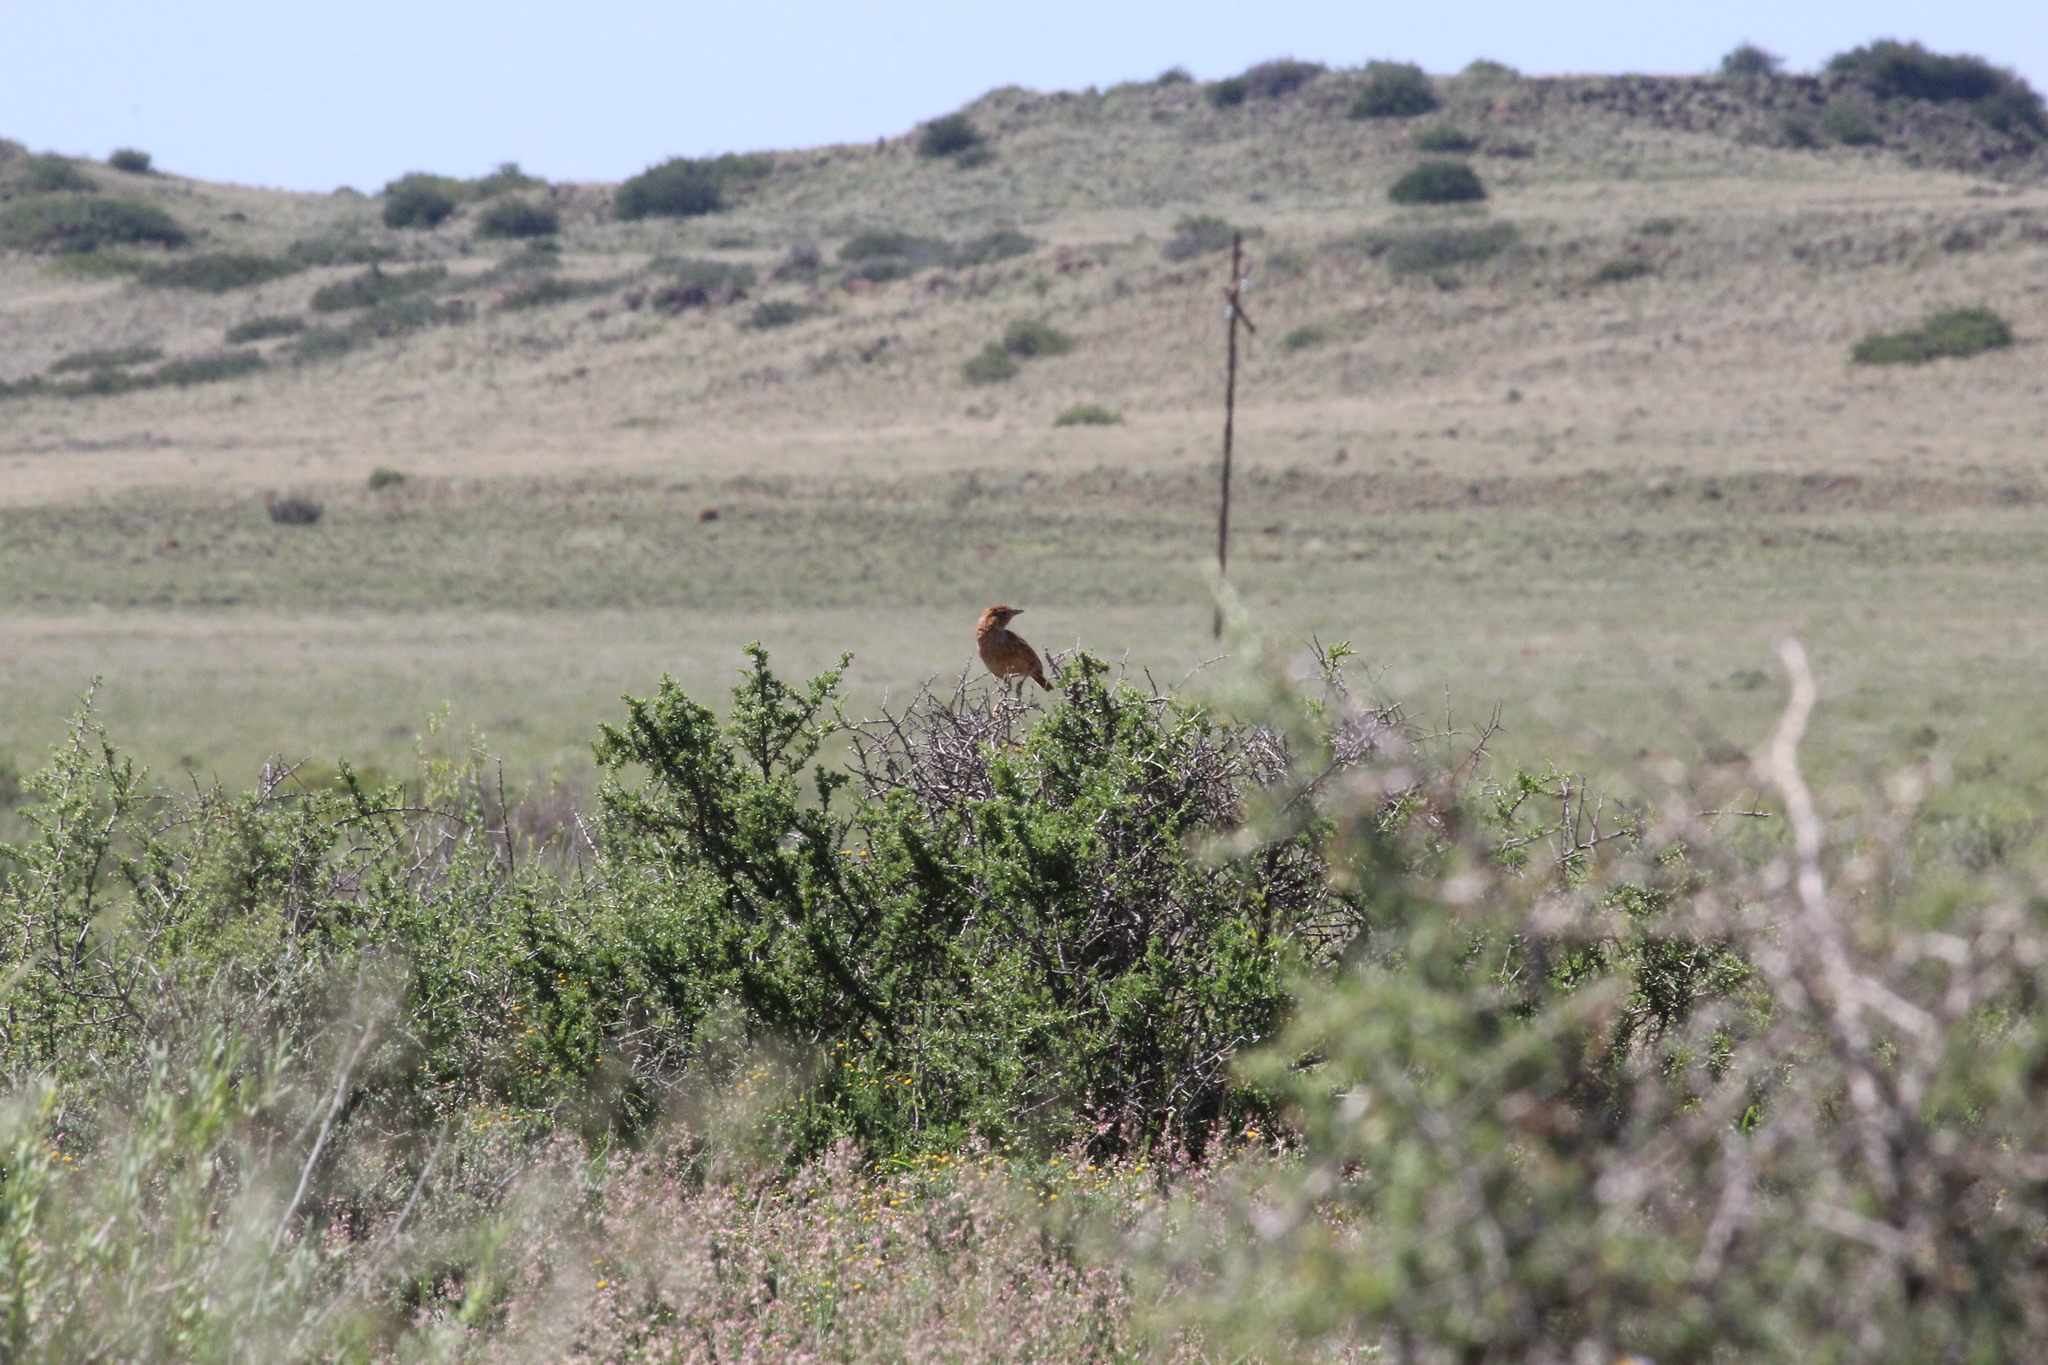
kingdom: Animalia
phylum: Chordata
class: Aves
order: Passeriformes
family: Alaudidae
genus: Mirafra
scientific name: Mirafra fasciolata
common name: Eastern clapper lark
